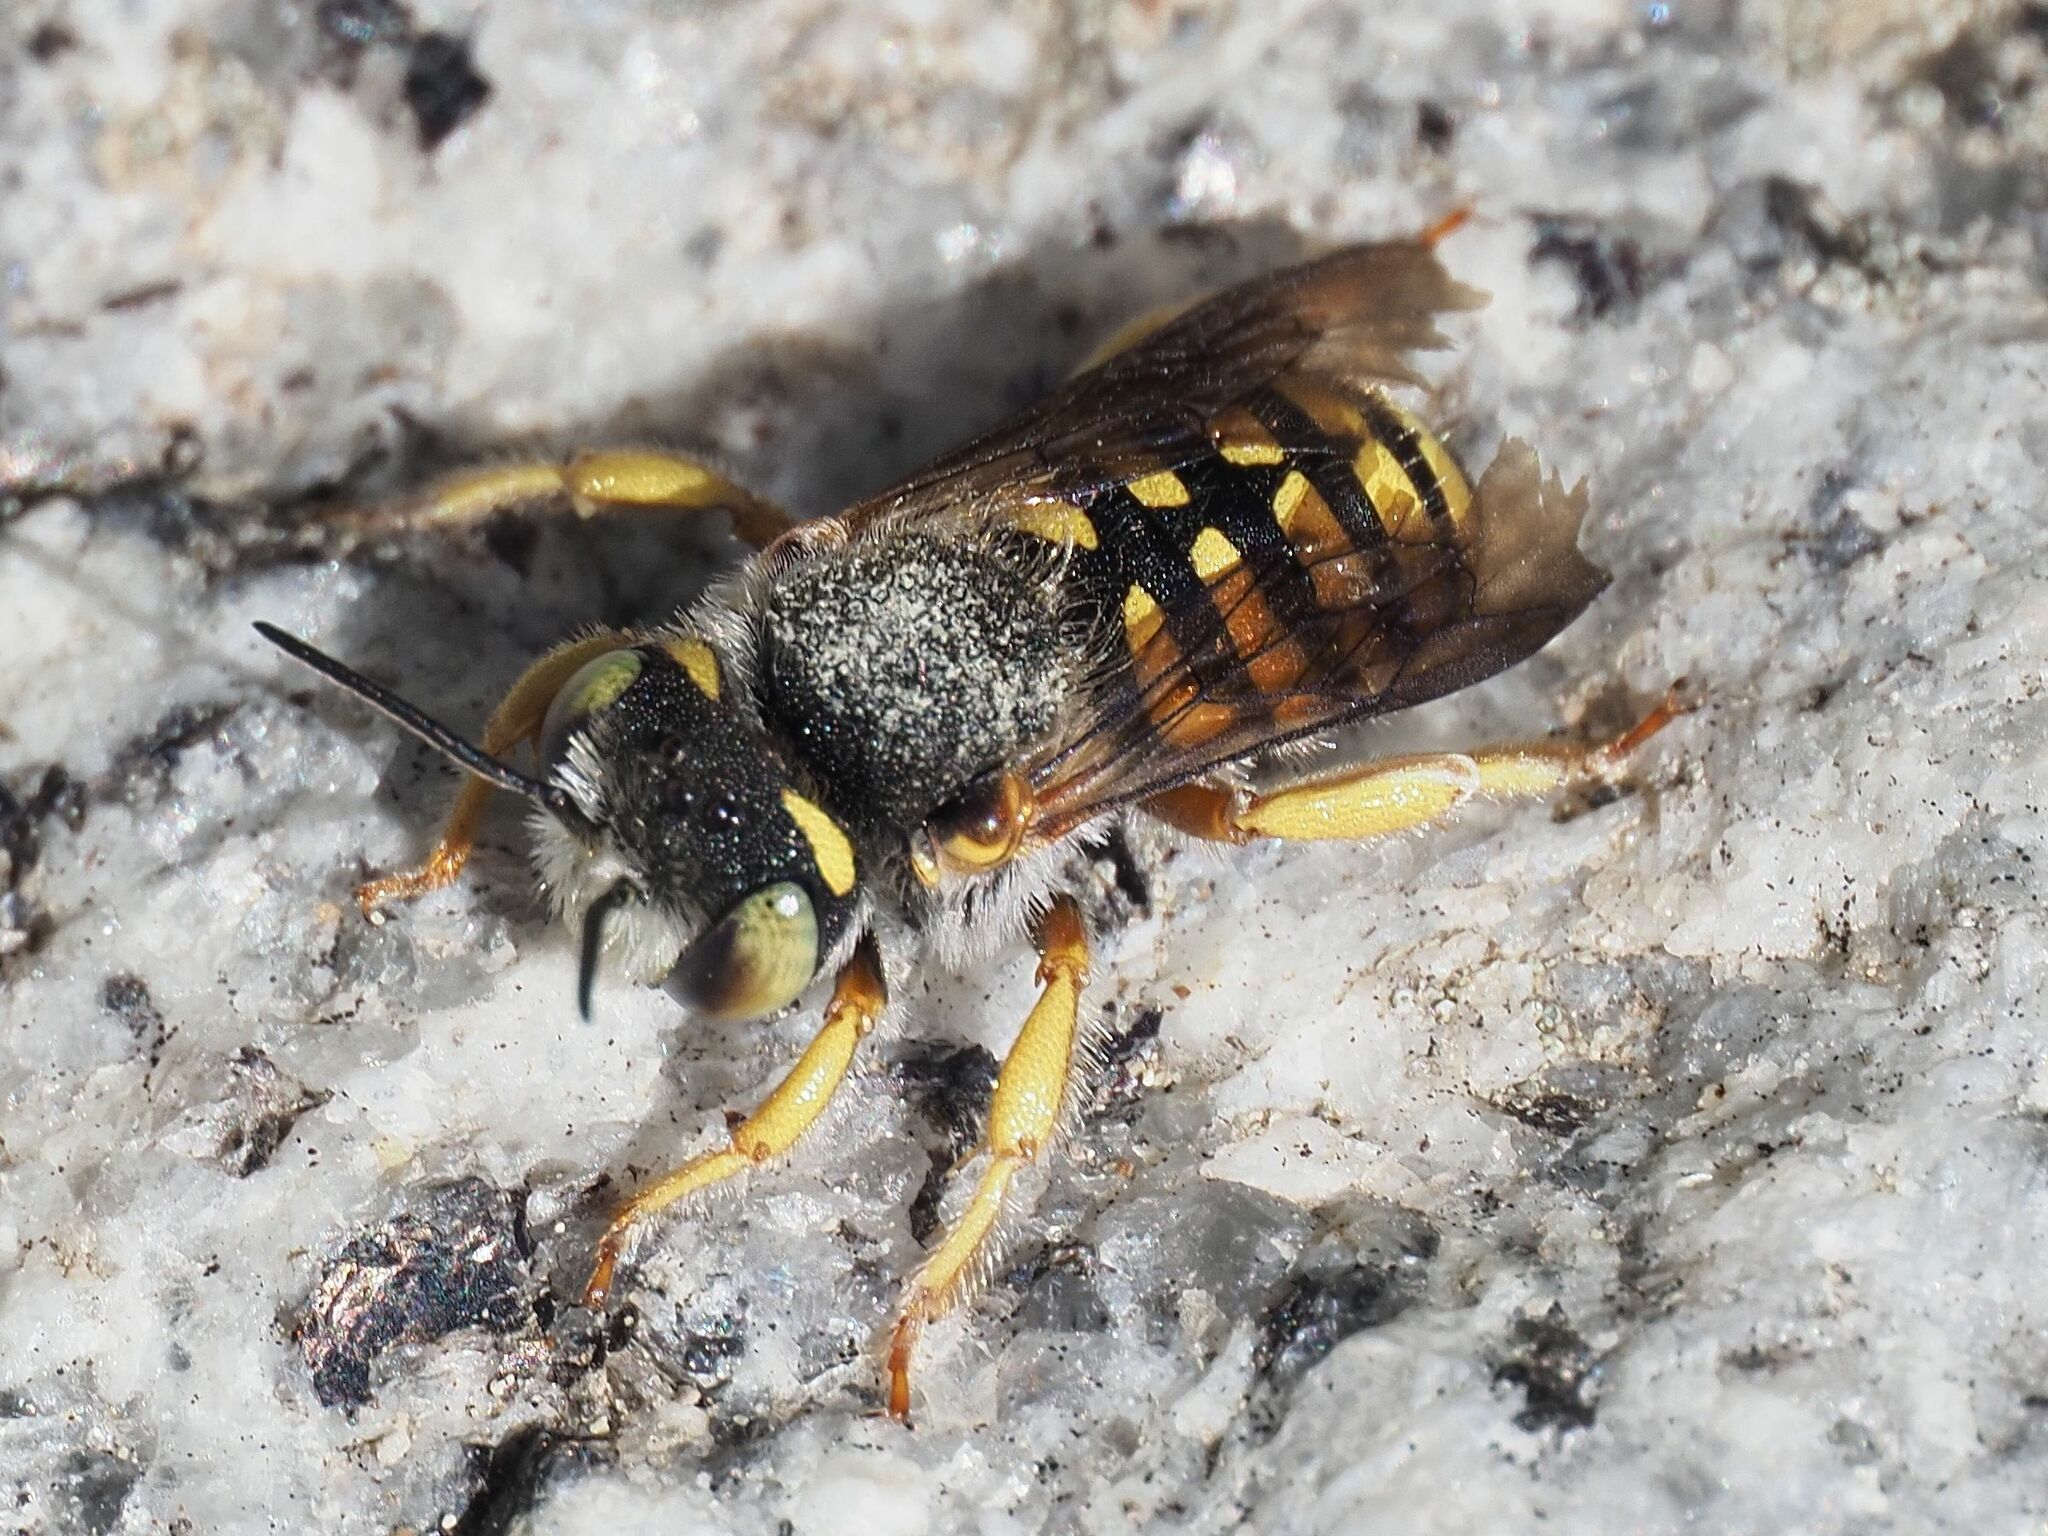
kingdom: Animalia
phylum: Arthropoda
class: Insecta
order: Hymenoptera
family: Megachilidae
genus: Anthidium
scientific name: Anthidium oblongatum
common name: Oblong wool carder bee
